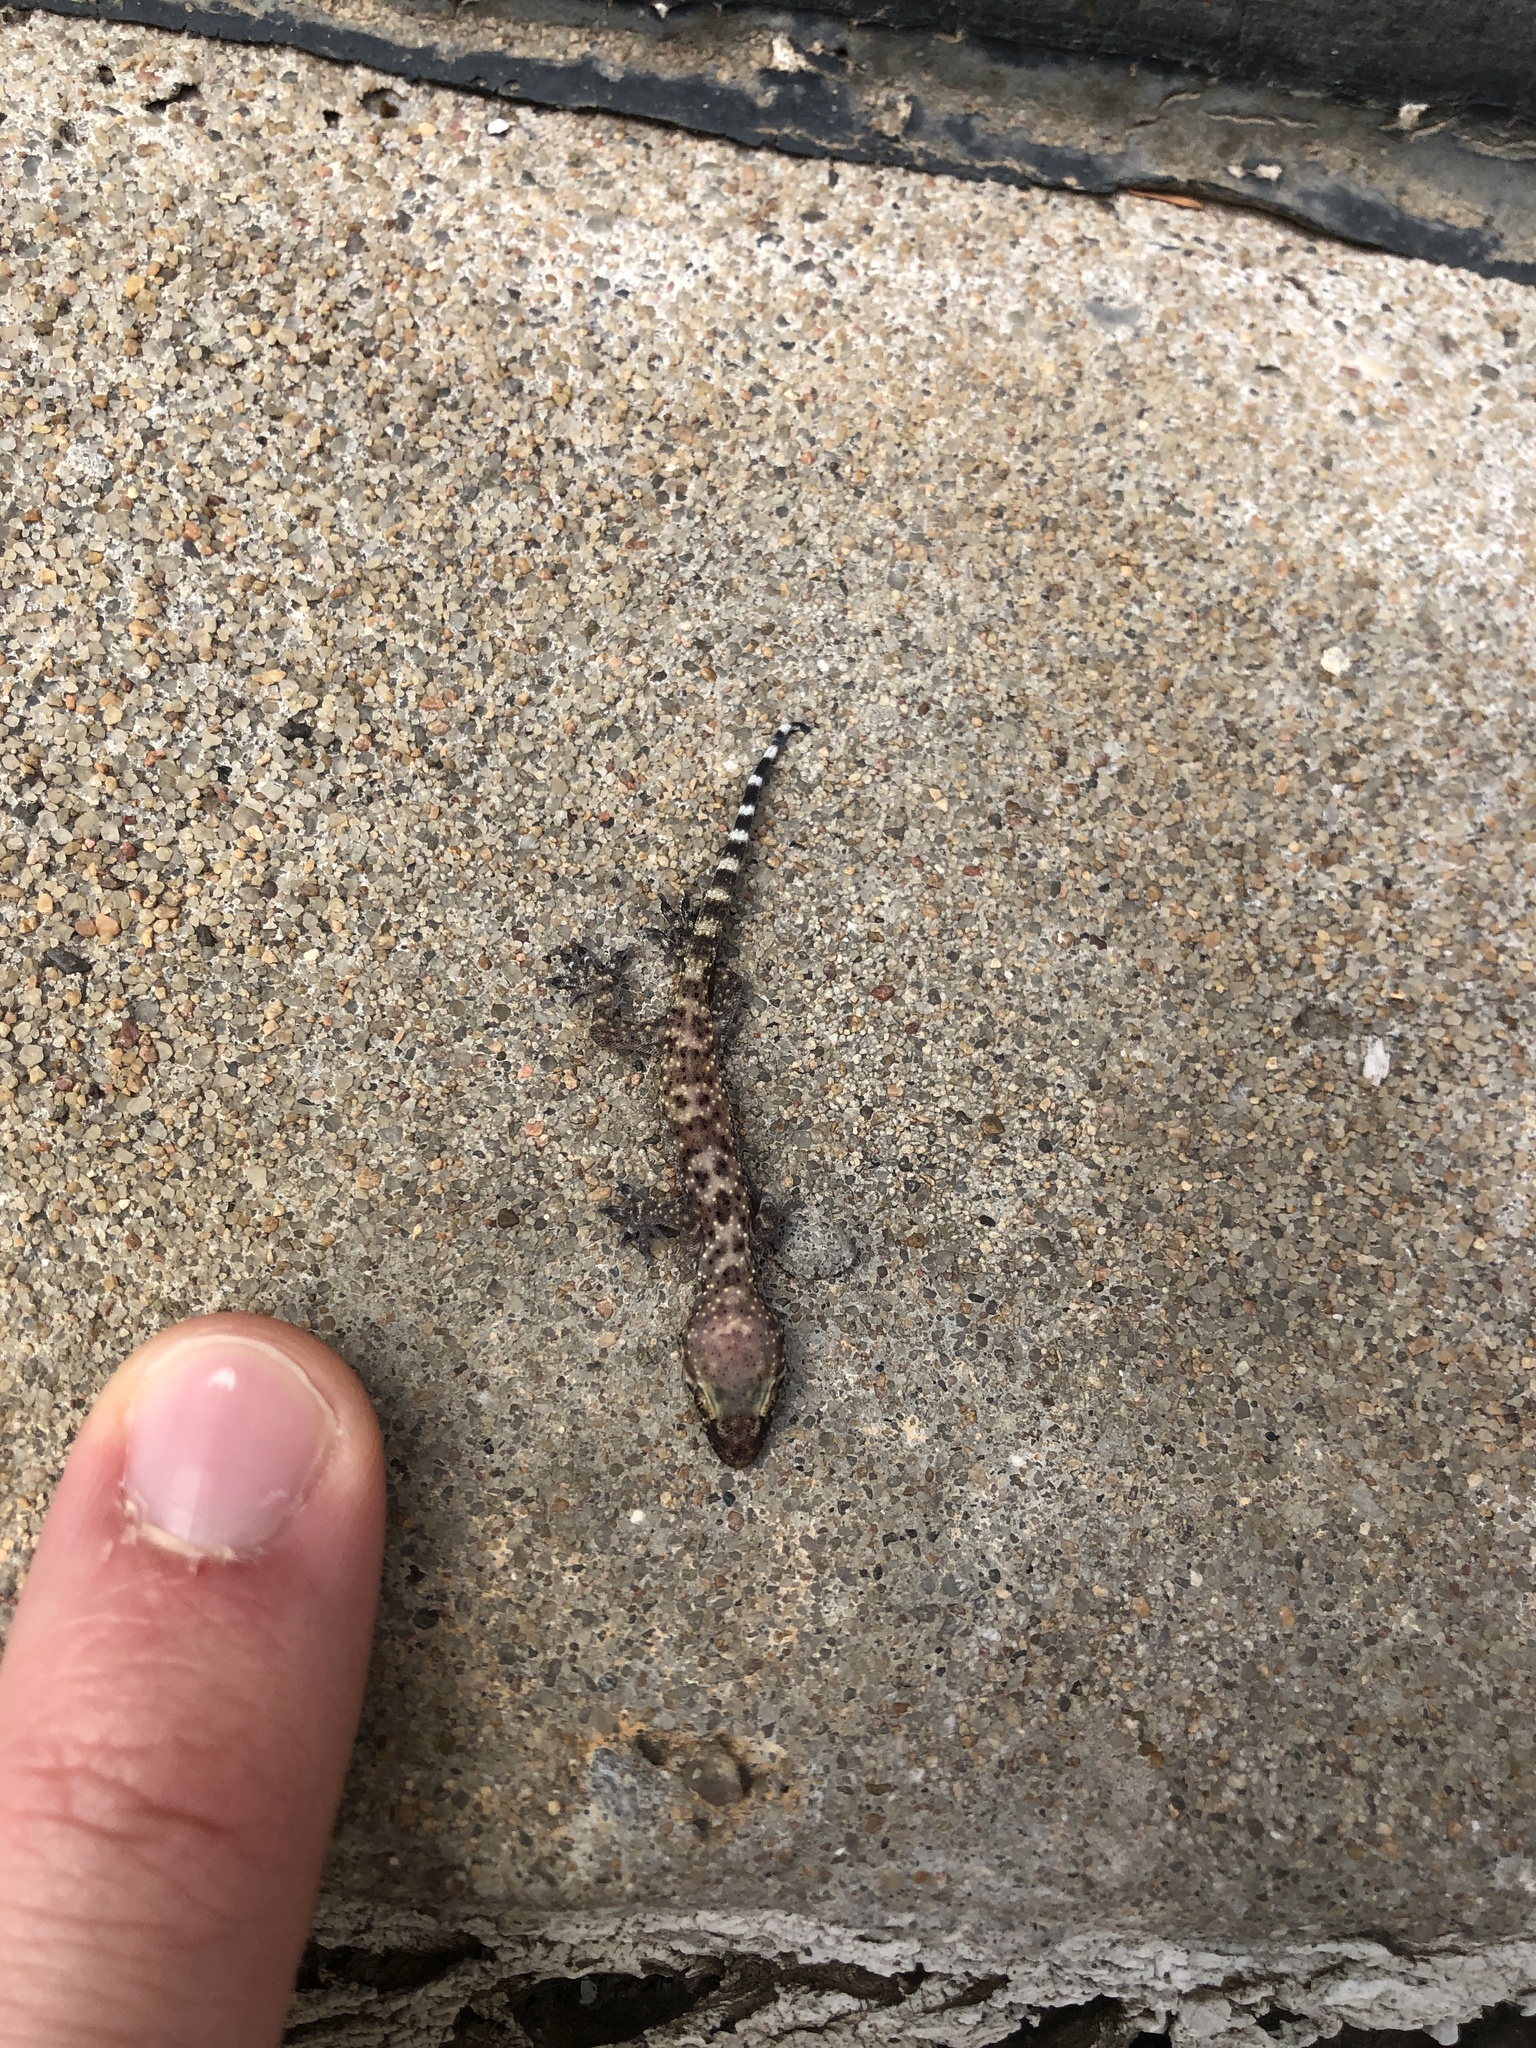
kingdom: Animalia
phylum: Chordata
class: Squamata
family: Gekkonidae
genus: Hemidactylus
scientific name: Hemidactylus turcicus
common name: Turkish gecko
